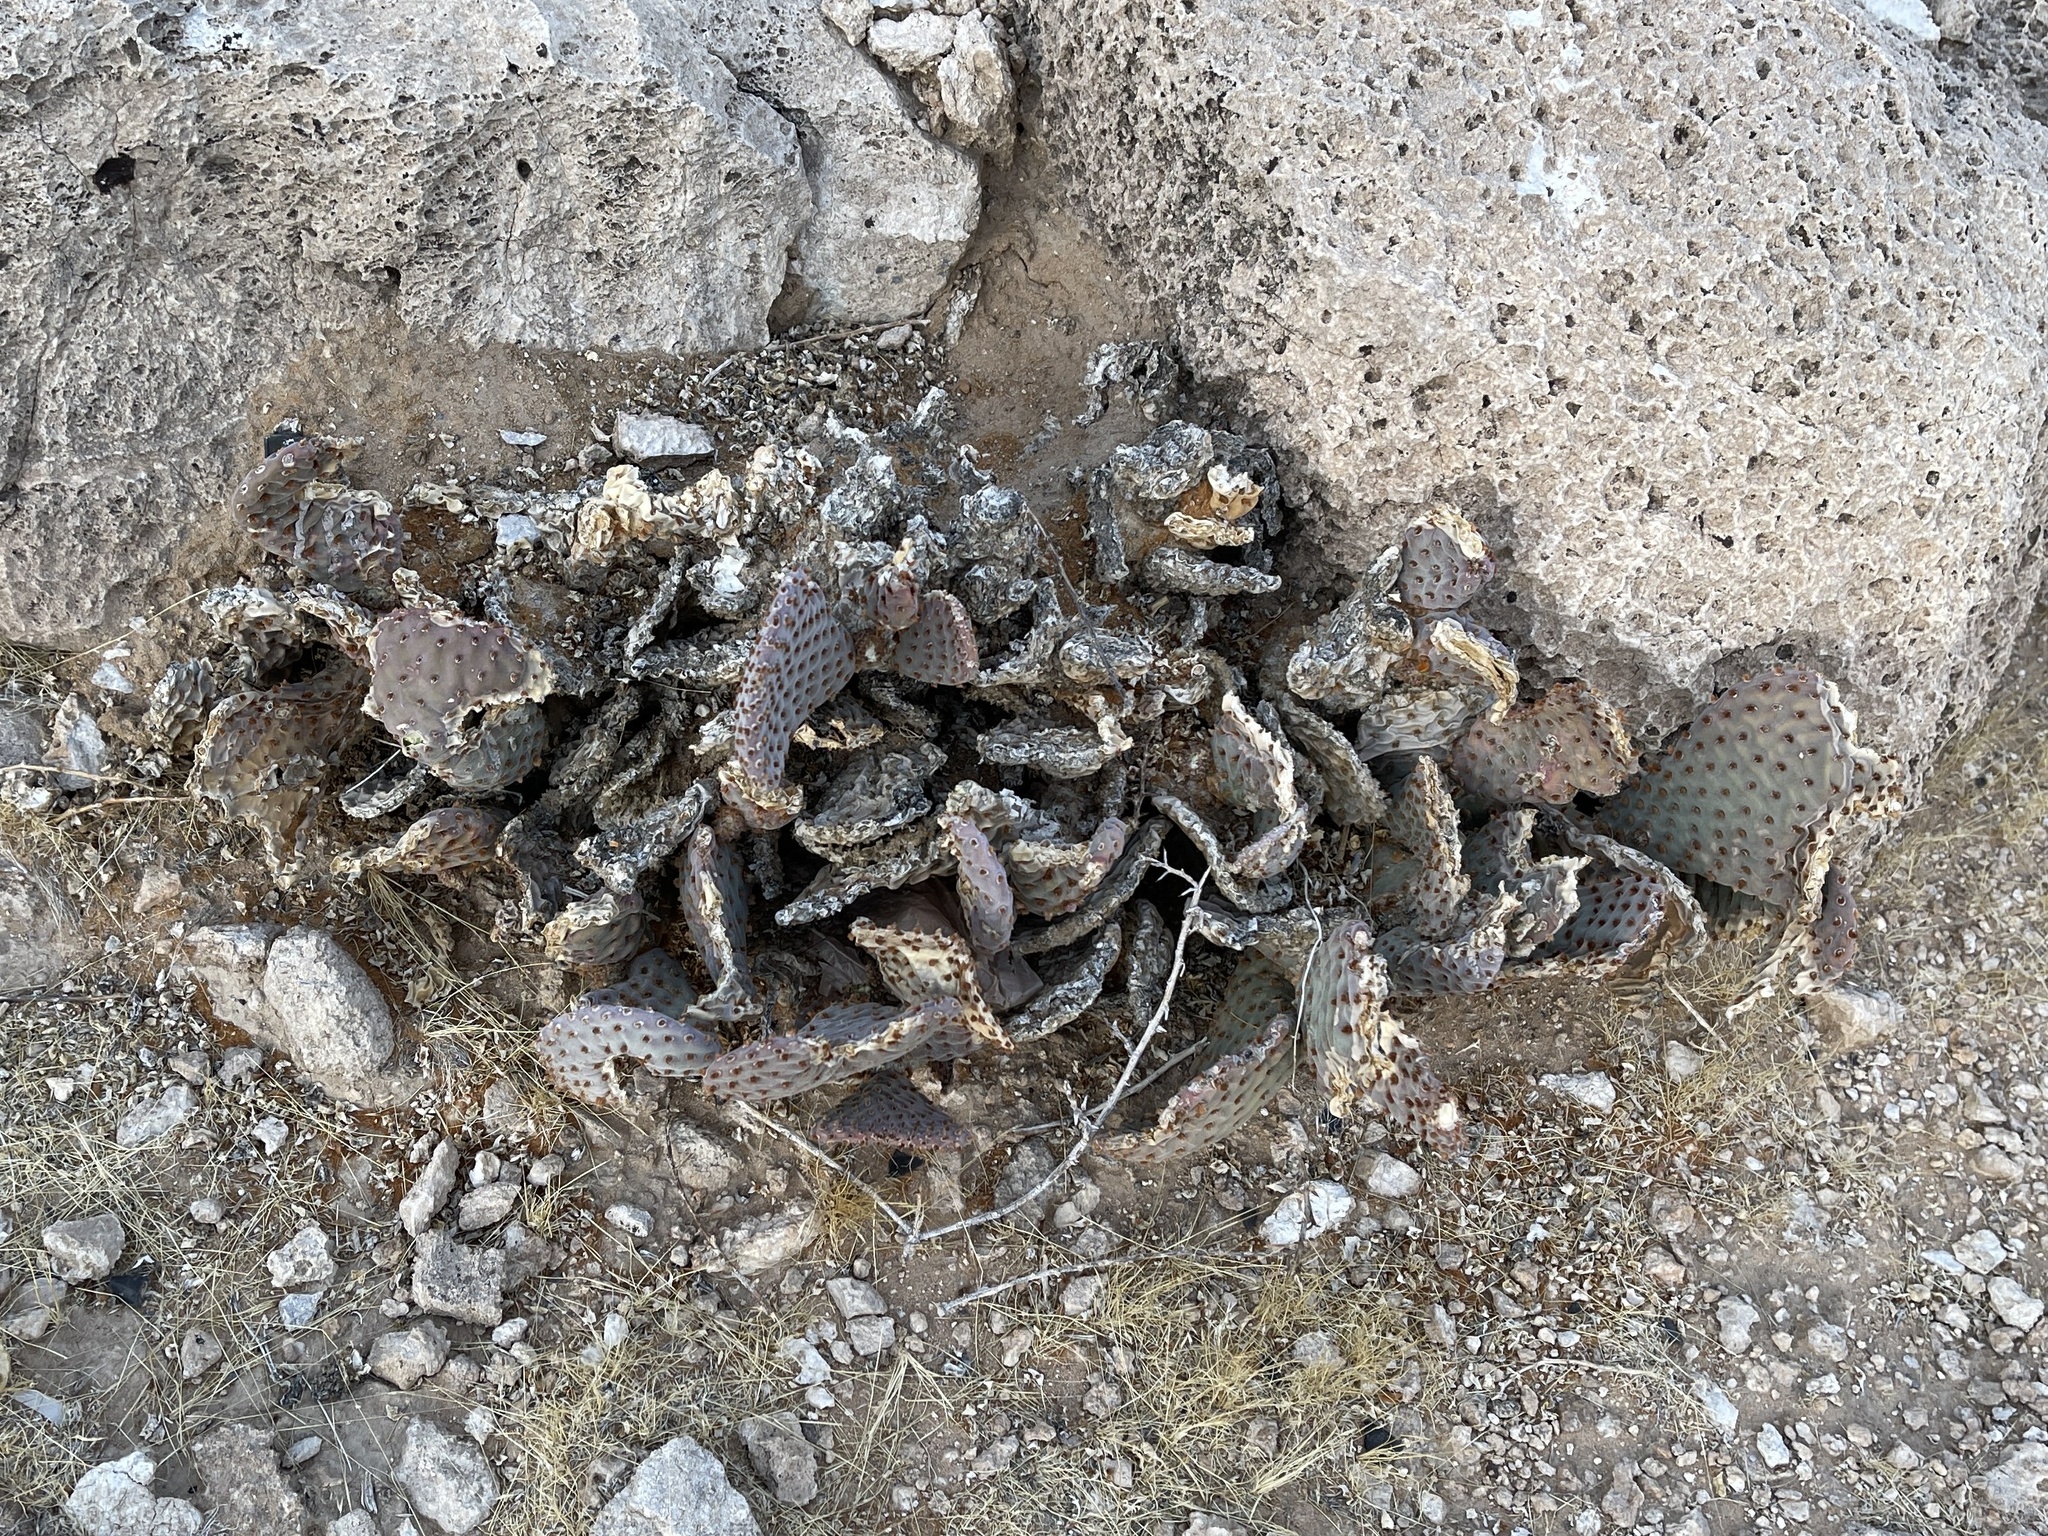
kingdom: Plantae
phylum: Tracheophyta
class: Magnoliopsida
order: Caryophyllales
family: Cactaceae
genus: Opuntia
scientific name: Opuntia basilaris
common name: Beavertail prickly-pear
